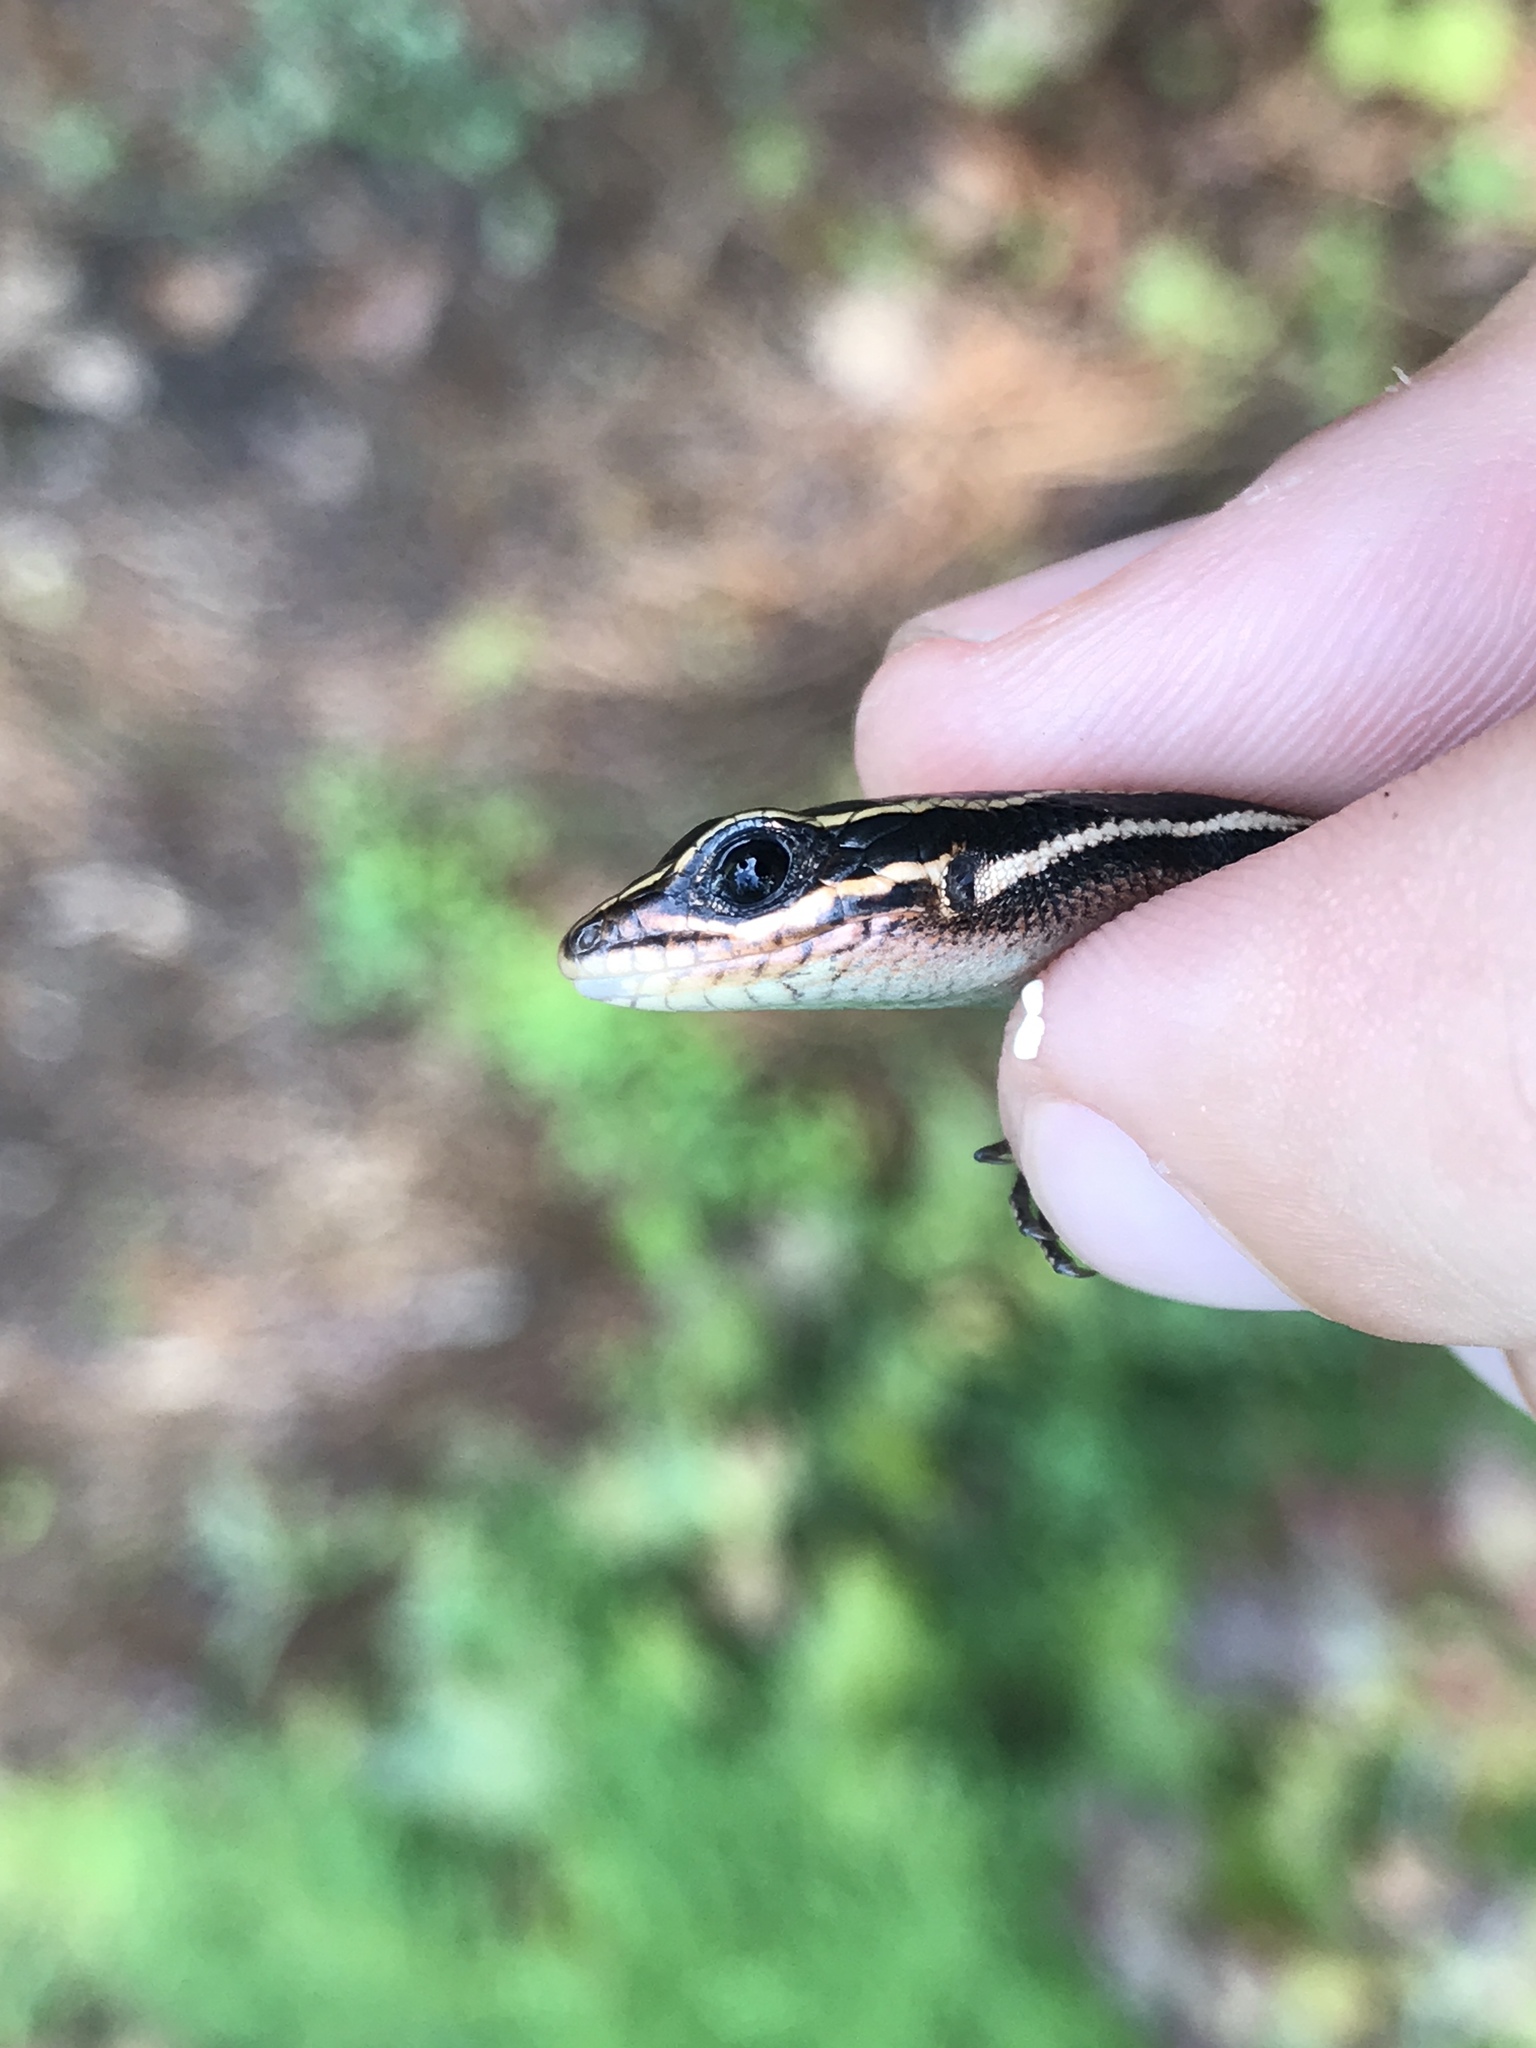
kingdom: Animalia
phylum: Chordata
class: Squamata
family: Scincidae
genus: Plestiodon
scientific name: Plestiodon fasciatus
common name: Five-lined skink
